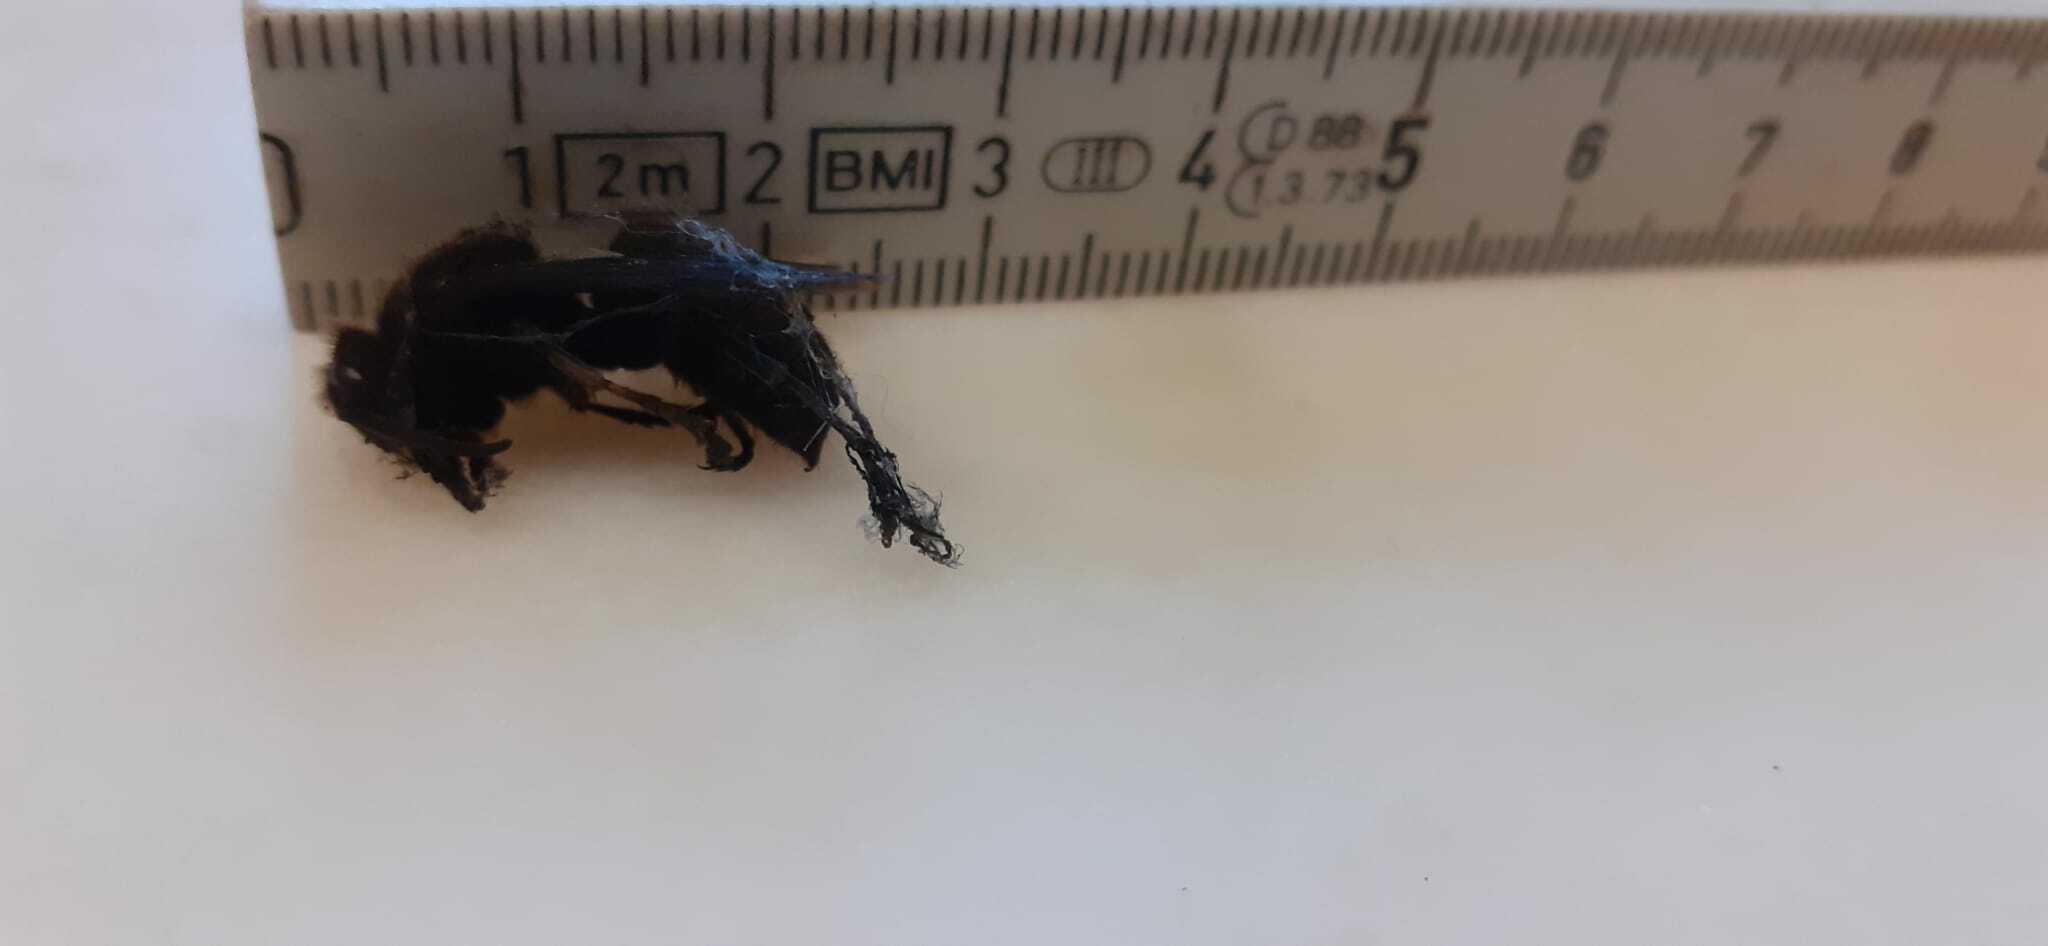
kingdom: Animalia
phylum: Arthropoda
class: Insecta
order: Hymenoptera
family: Vespidae
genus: Vespa
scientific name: Vespa crabro
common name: Hornet
